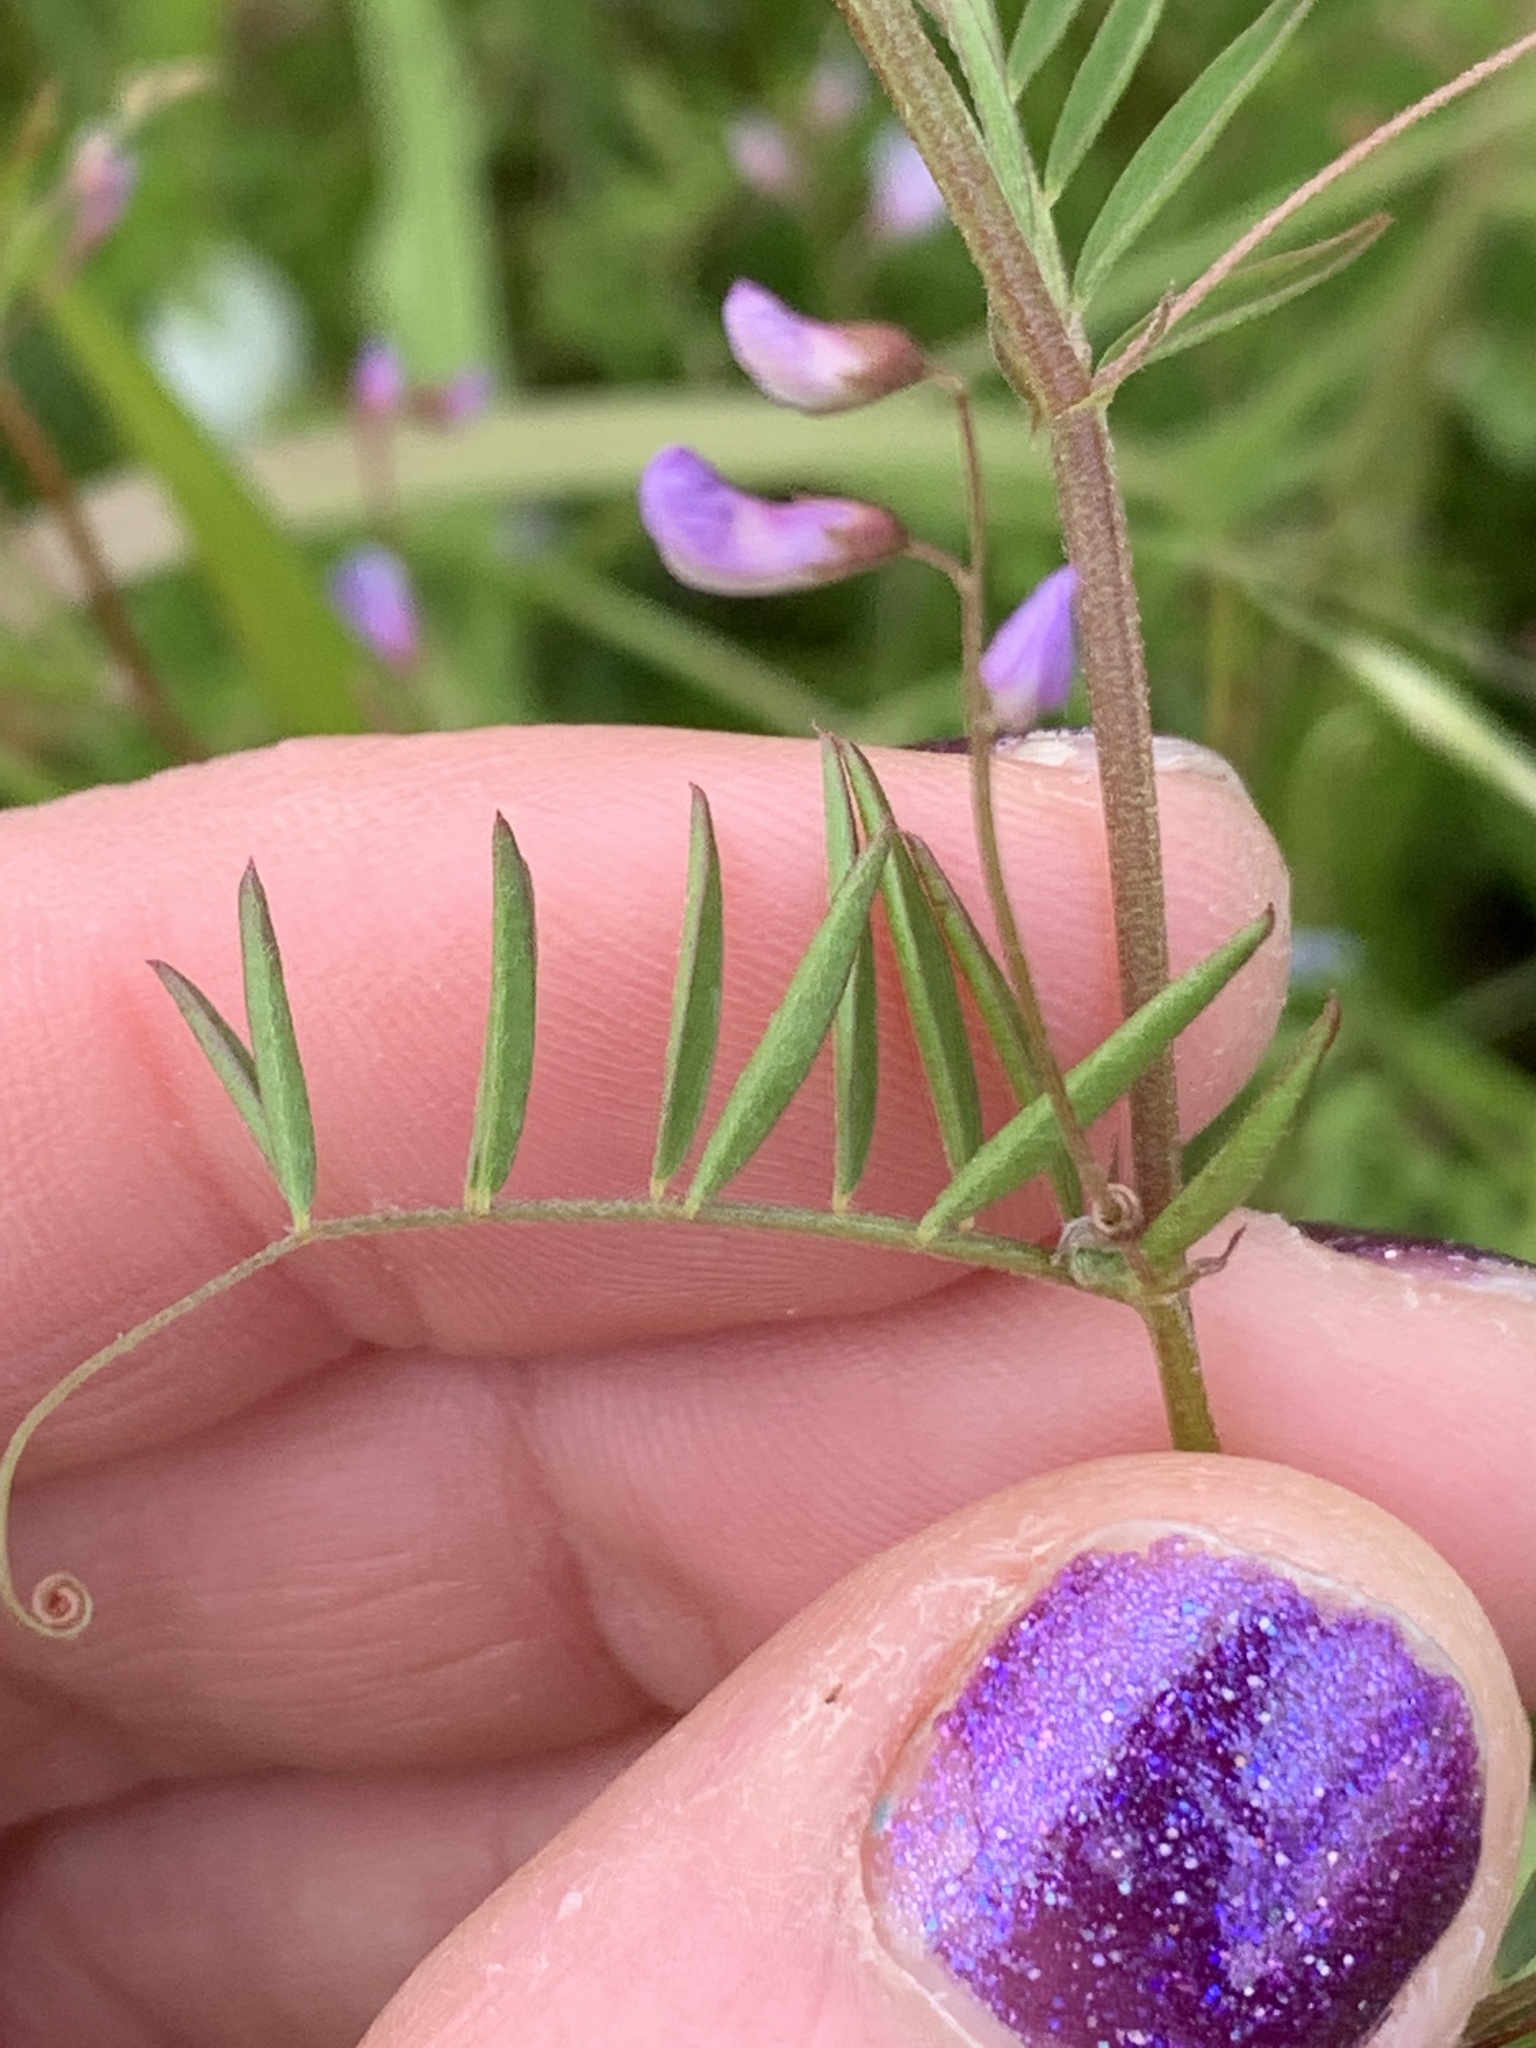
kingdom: Plantae
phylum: Tracheophyta
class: Magnoliopsida
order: Fabales
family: Fabaceae
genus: Vicia
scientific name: Vicia tetrasperma
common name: Smooth tare
